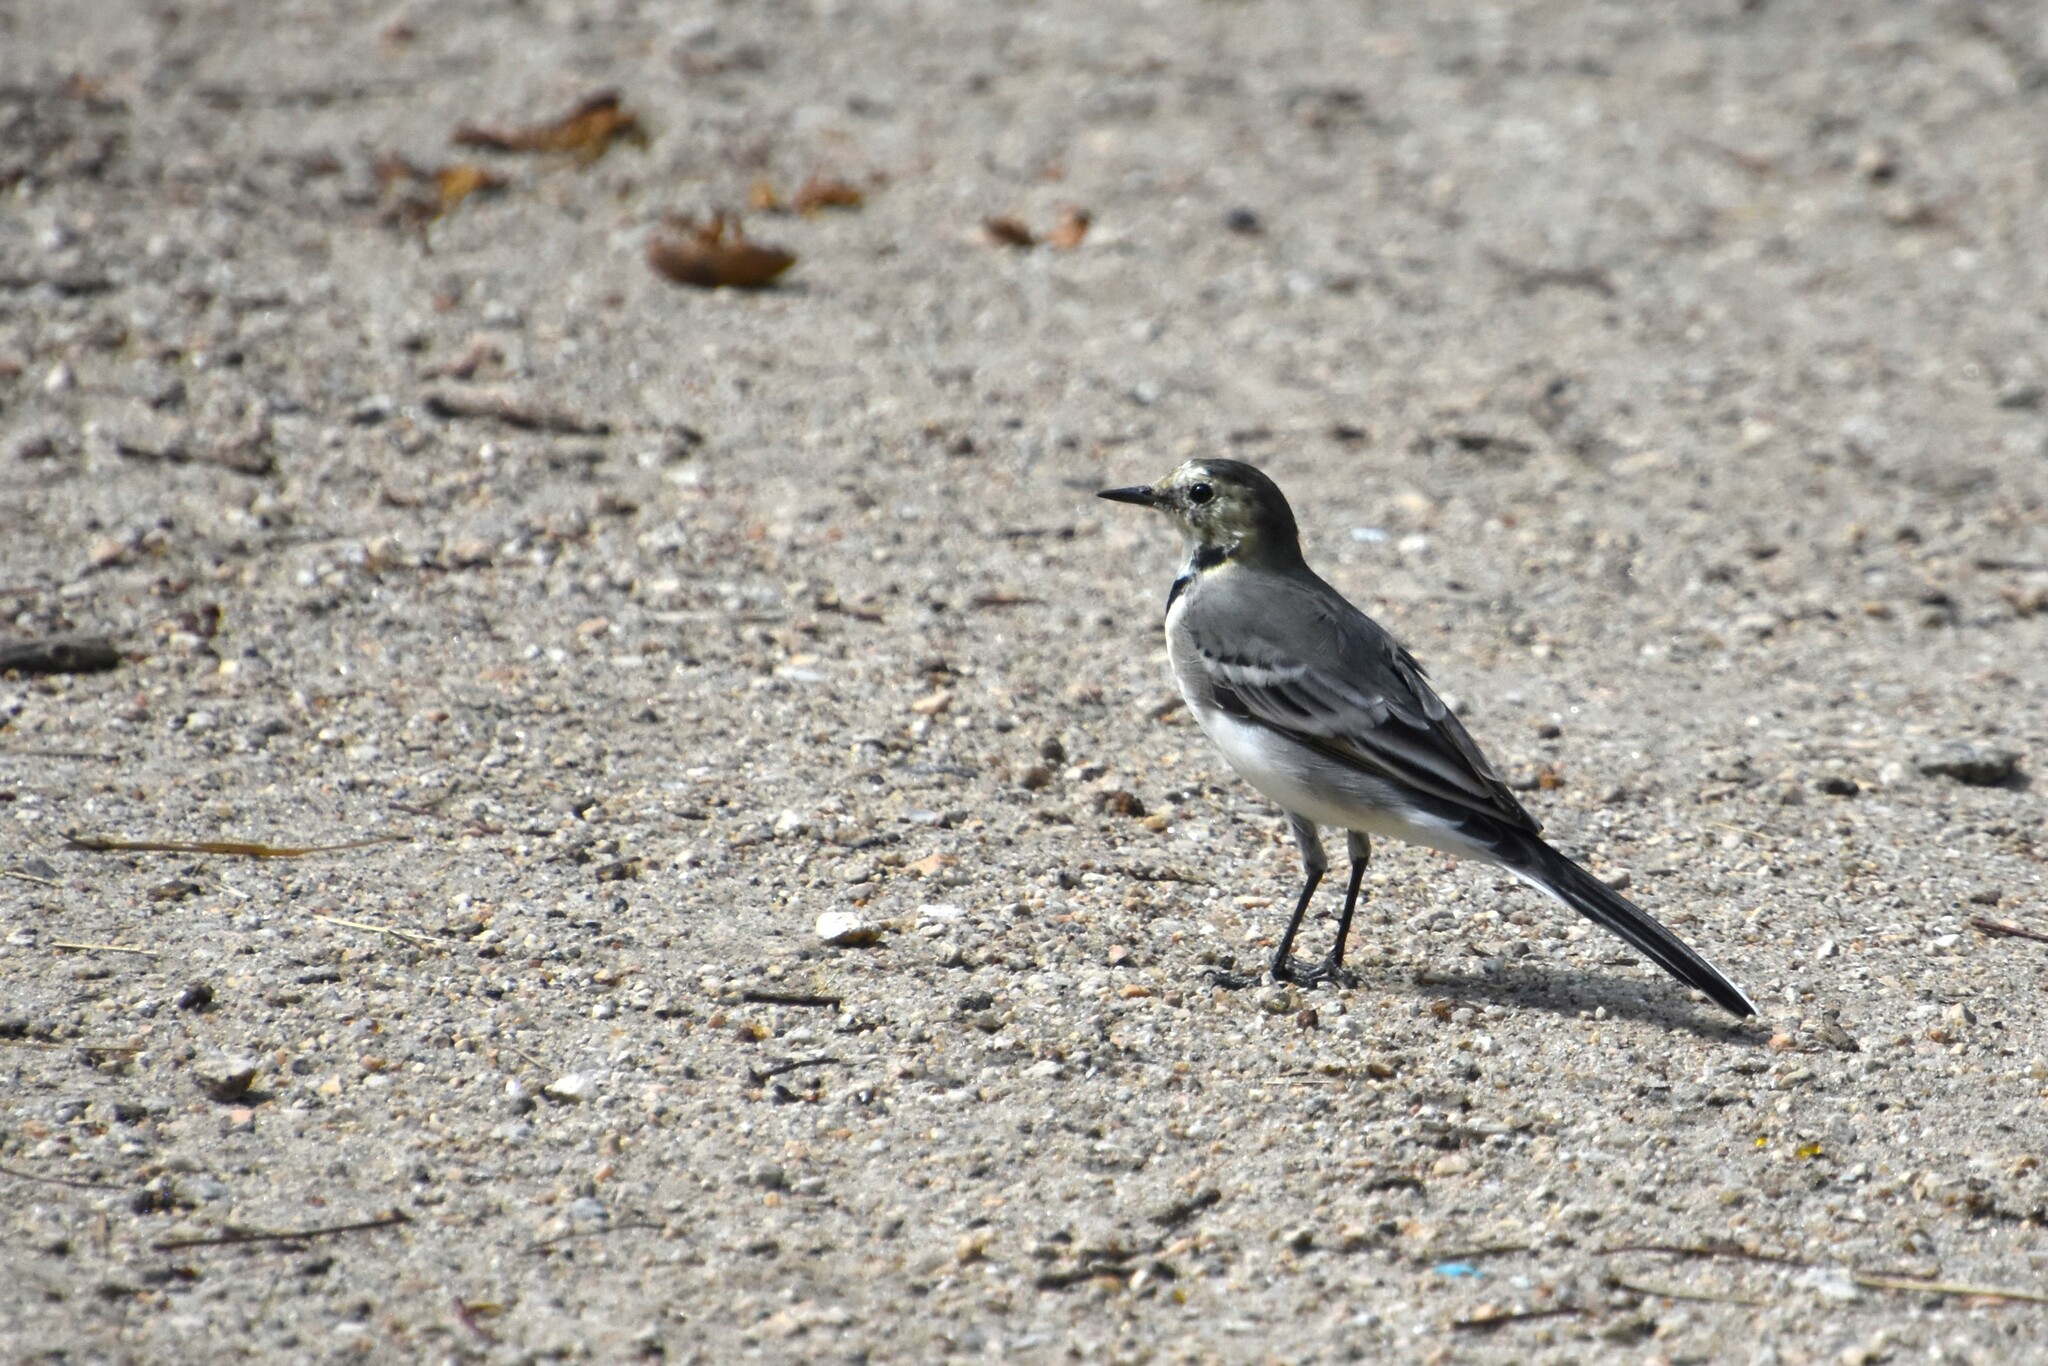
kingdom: Animalia
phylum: Chordata
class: Aves
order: Passeriformes
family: Motacillidae
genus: Motacilla
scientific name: Motacilla alba
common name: White wagtail
